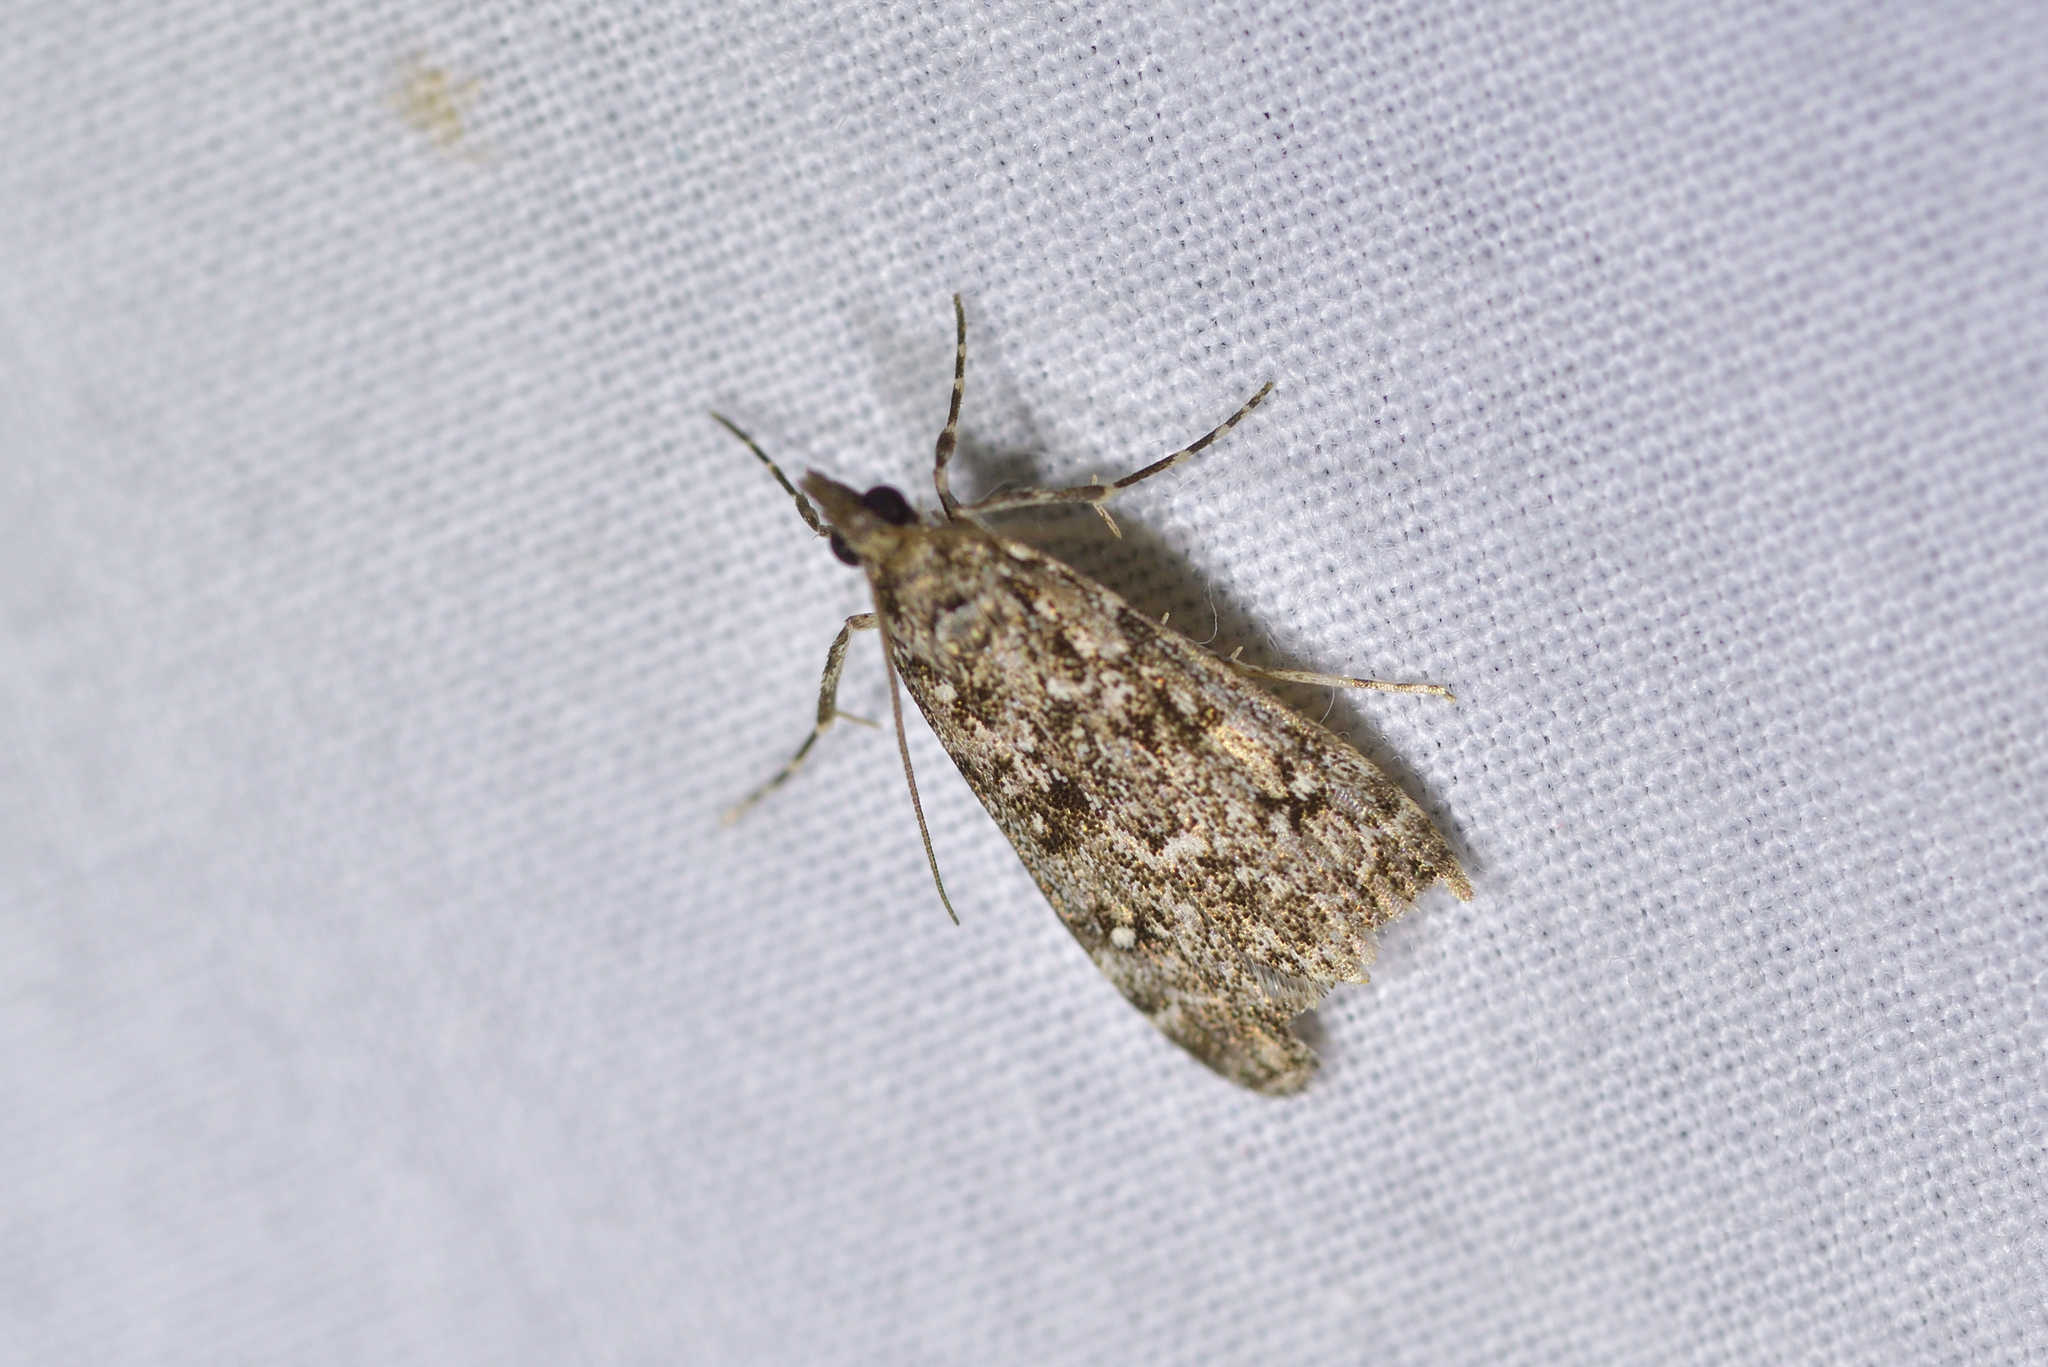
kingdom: Animalia
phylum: Arthropoda
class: Insecta
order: Lepidoptera
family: Crambidae
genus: Eudonia
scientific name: Eudonia philerga
